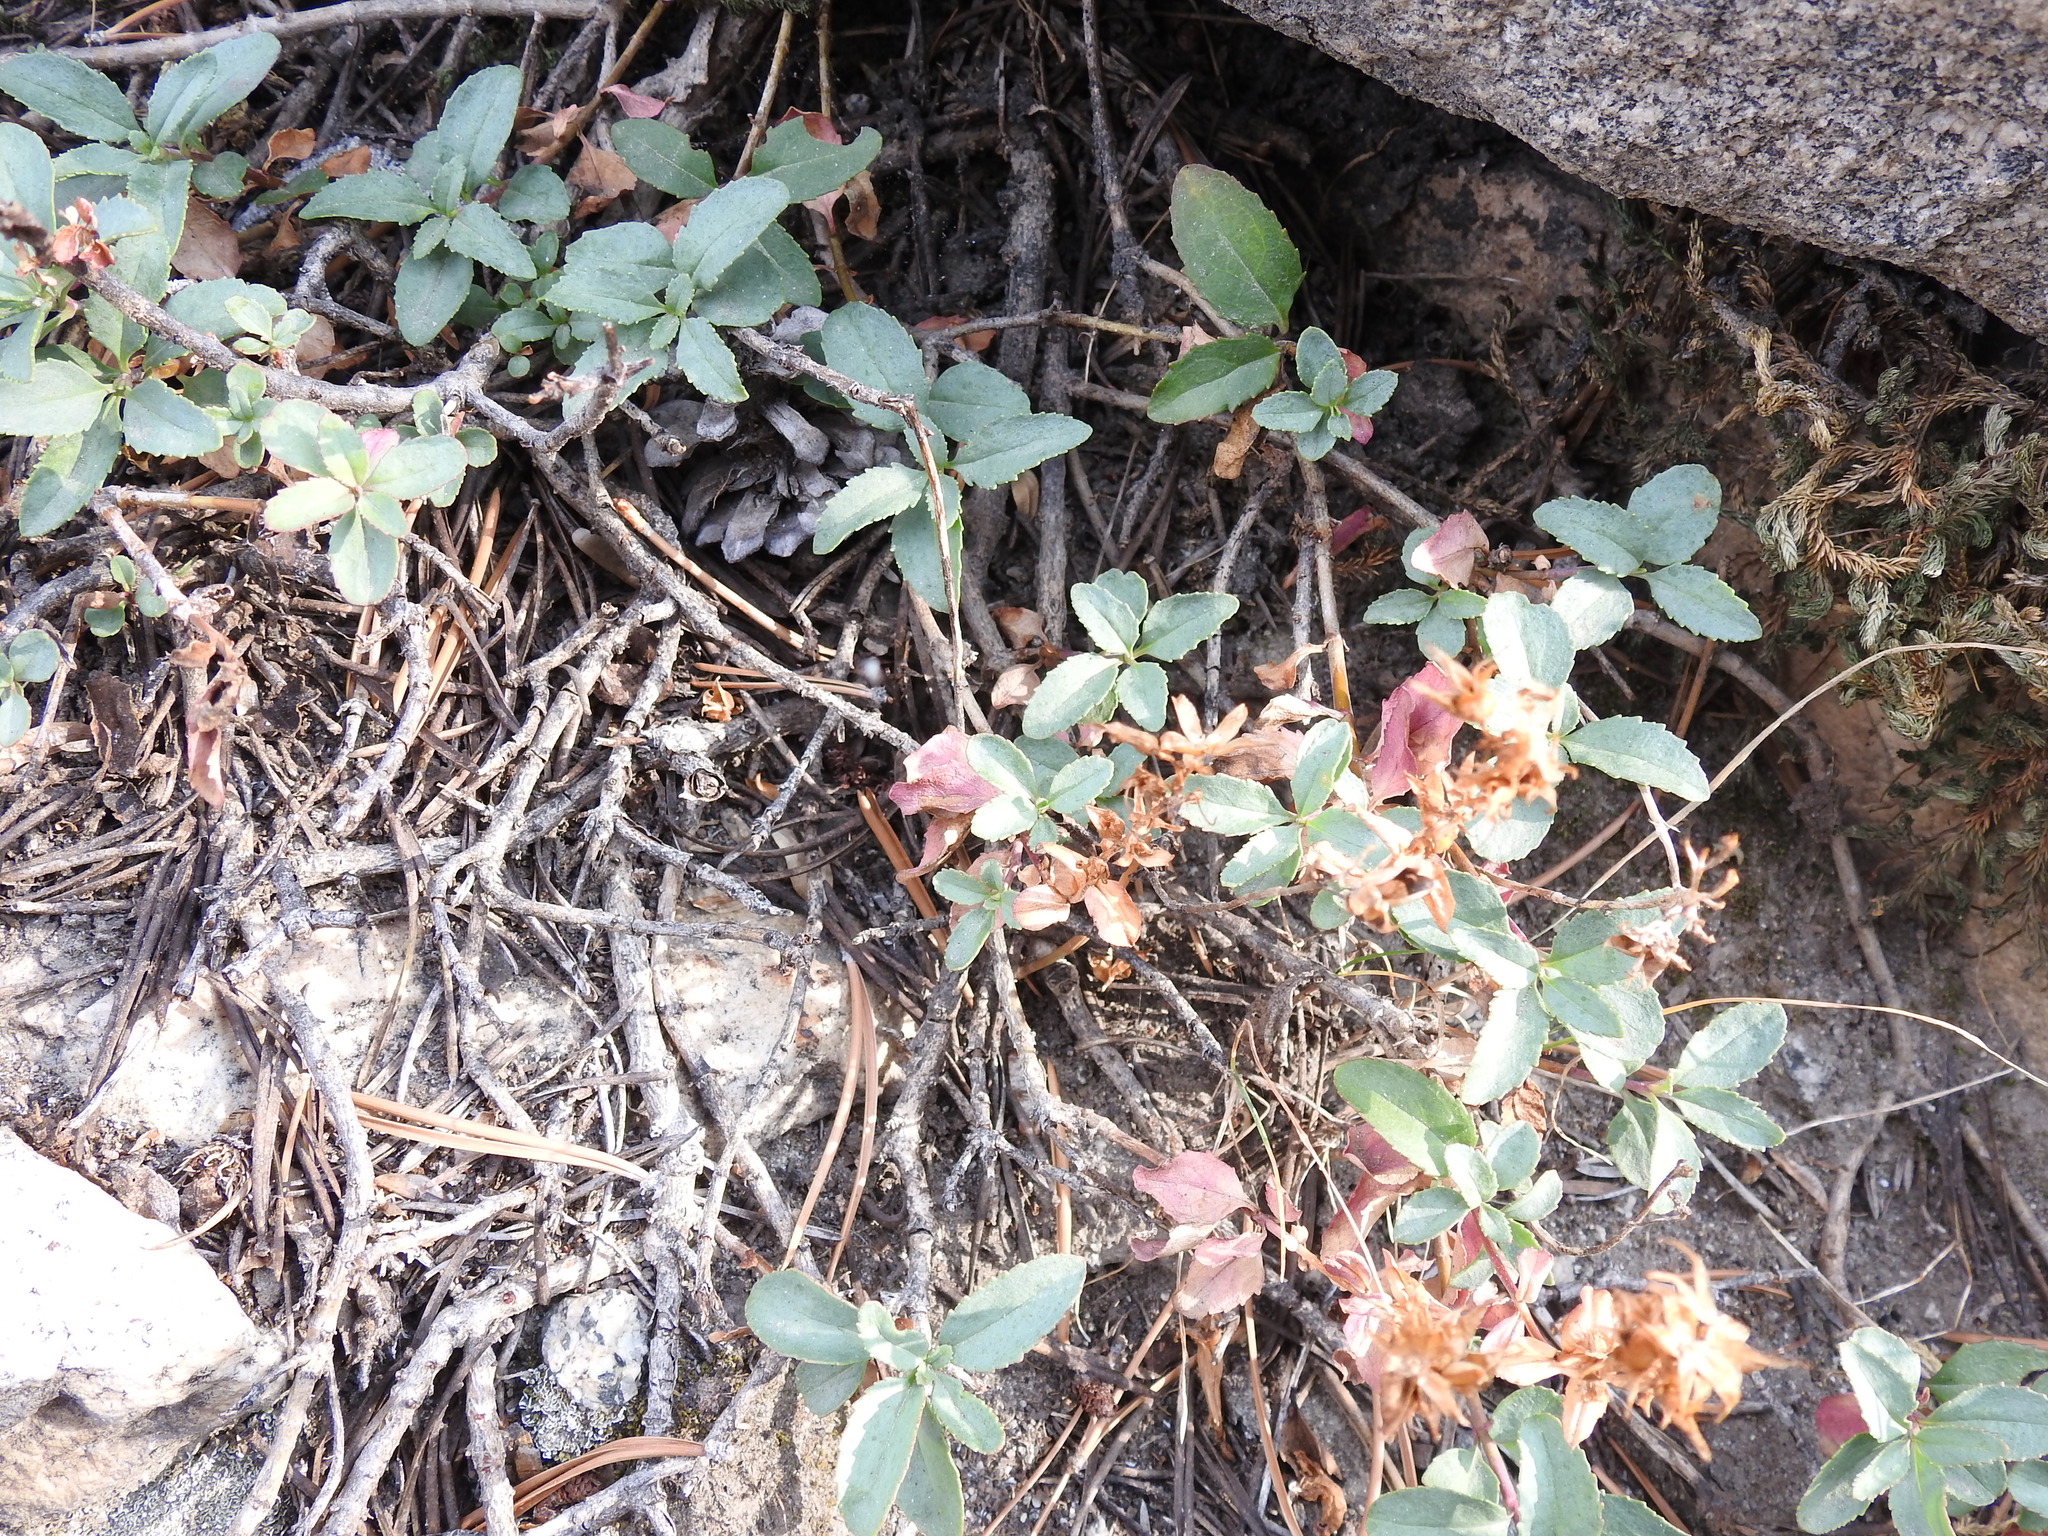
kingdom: Plantae
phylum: Tracheophyta
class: Magnoliopsida
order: Lamiales
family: Plantaginaceae
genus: Penstemon
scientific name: Penstemon newberryi
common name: Mountain-pride
